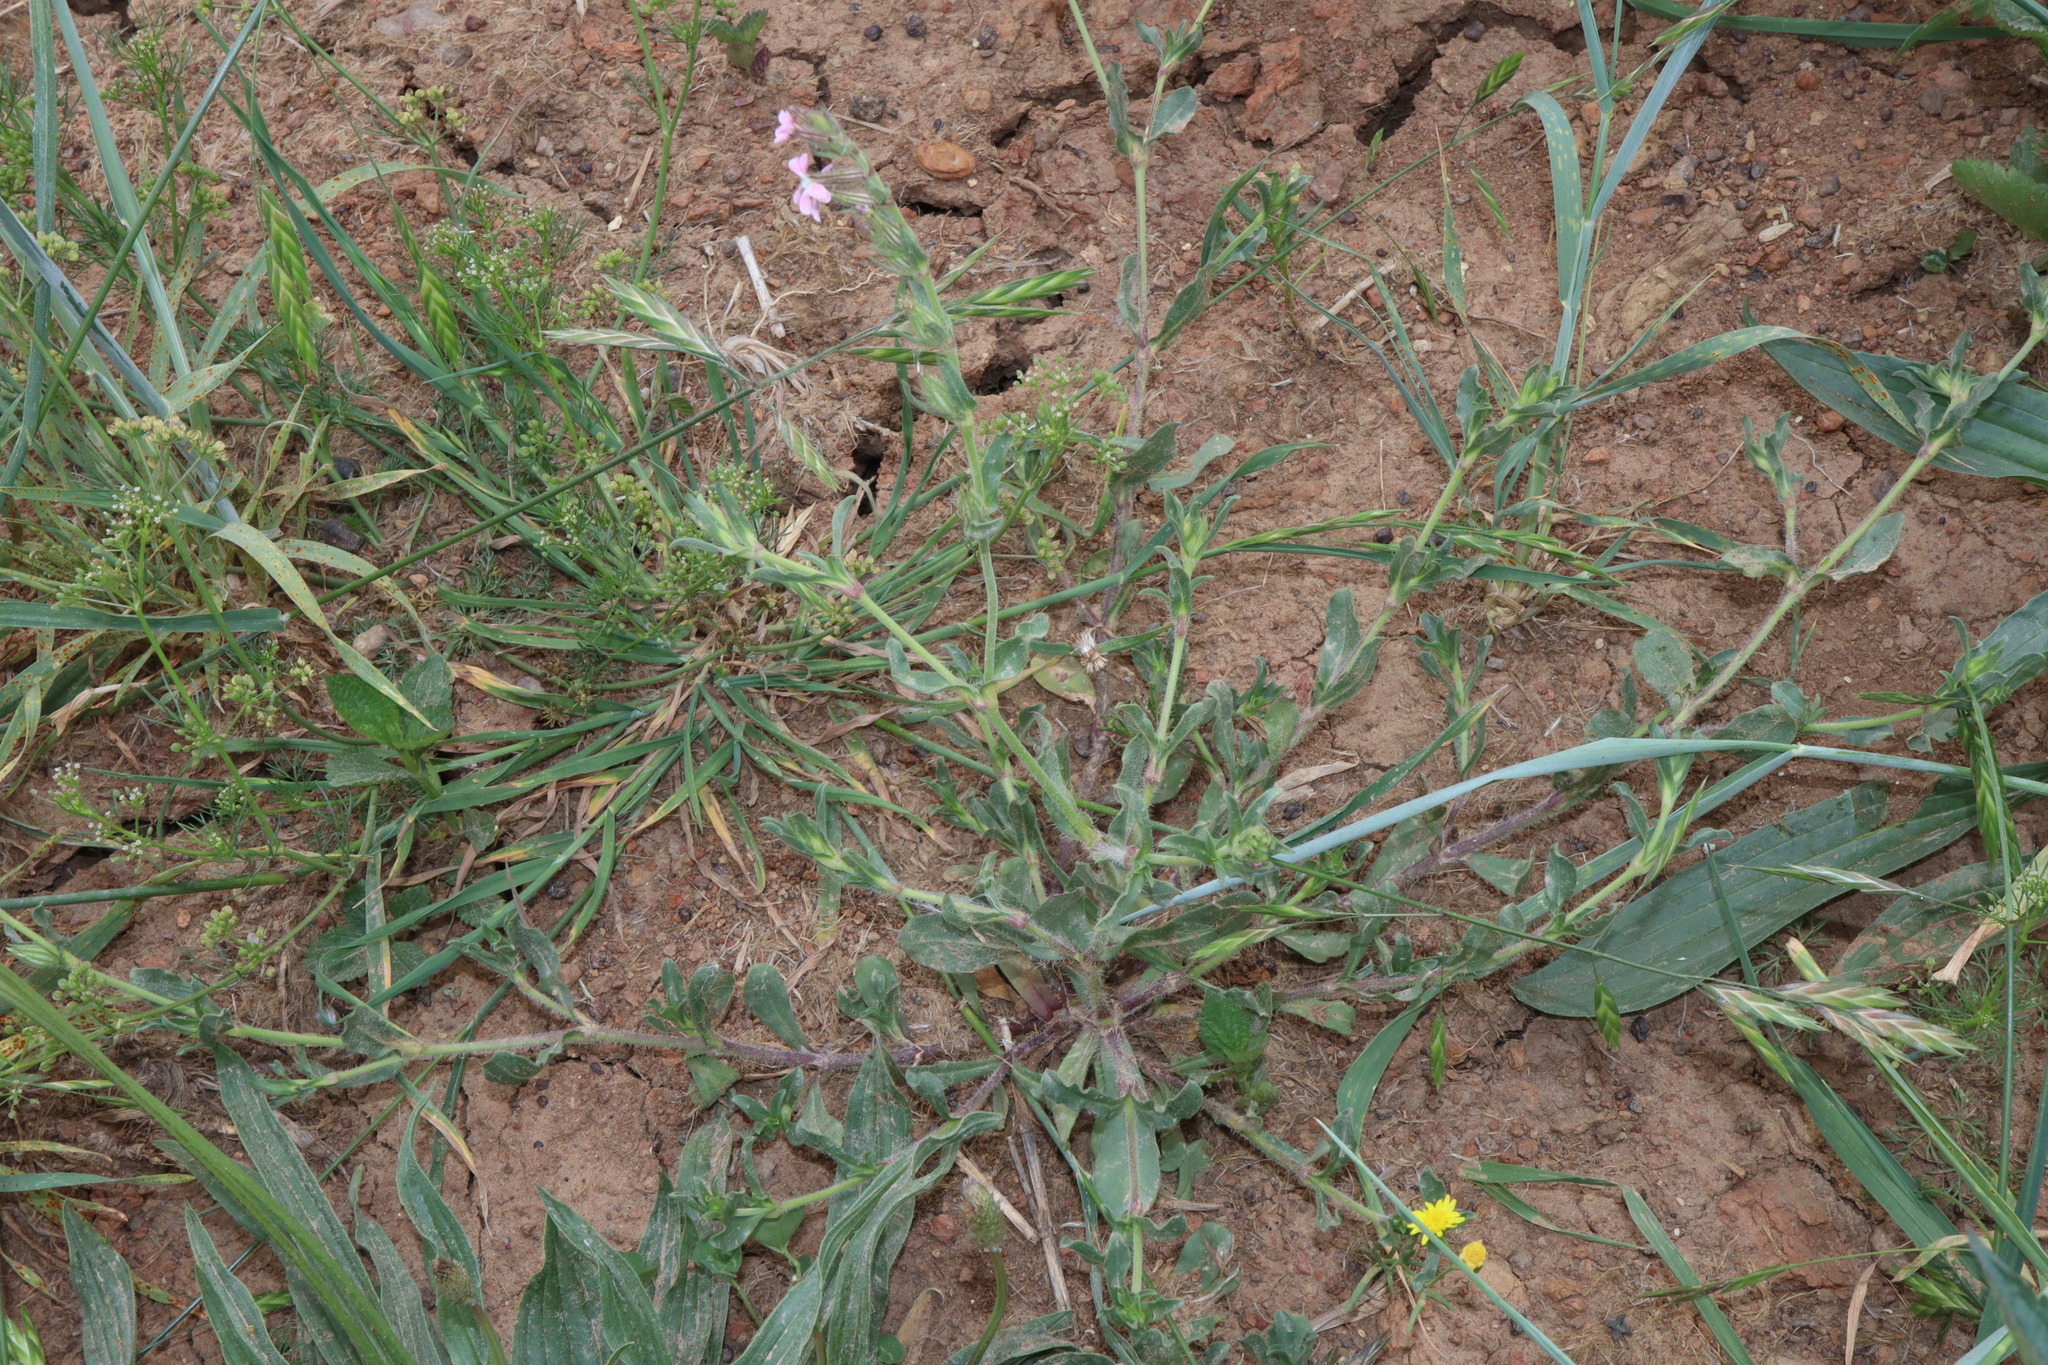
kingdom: Plantae
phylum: Tracheophyta
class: Magnoliopsida
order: Caryophyllales
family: Caryophyllaceae
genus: Silene
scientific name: Silene gallica
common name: Small-flowered catchfly
